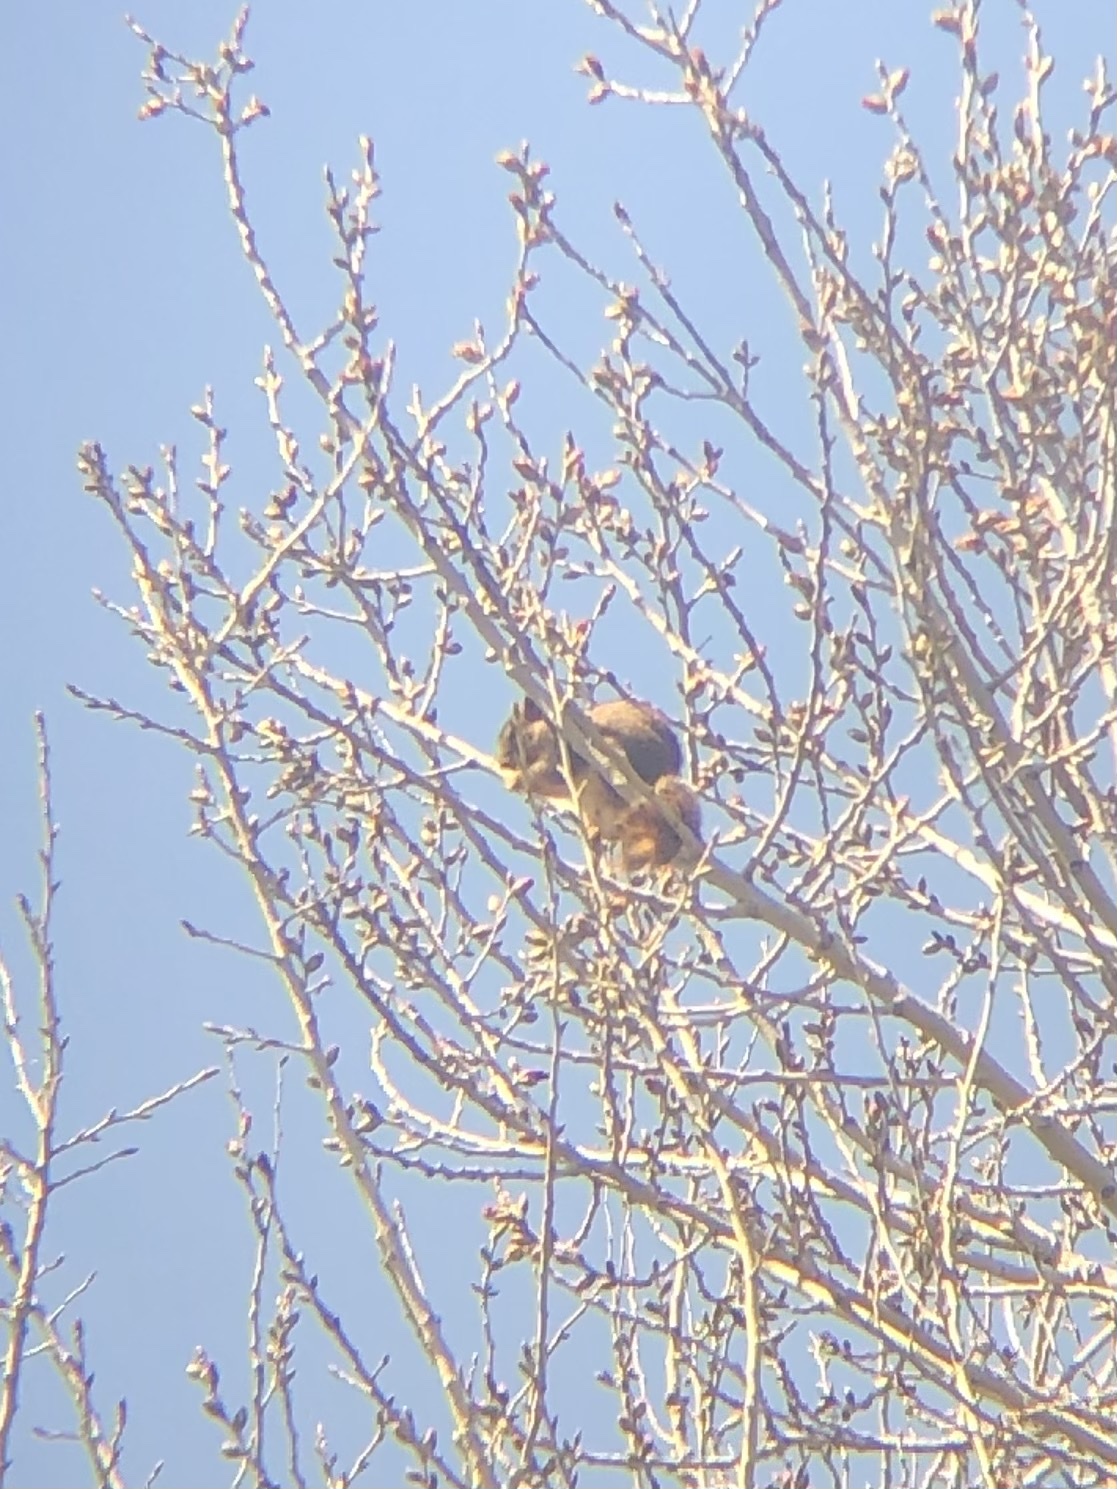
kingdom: Animalia
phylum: Chordata
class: Mammalia
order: Rodentia
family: Sciuridae
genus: Sciurus
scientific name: Sciurus niger
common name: Fox squirrel
